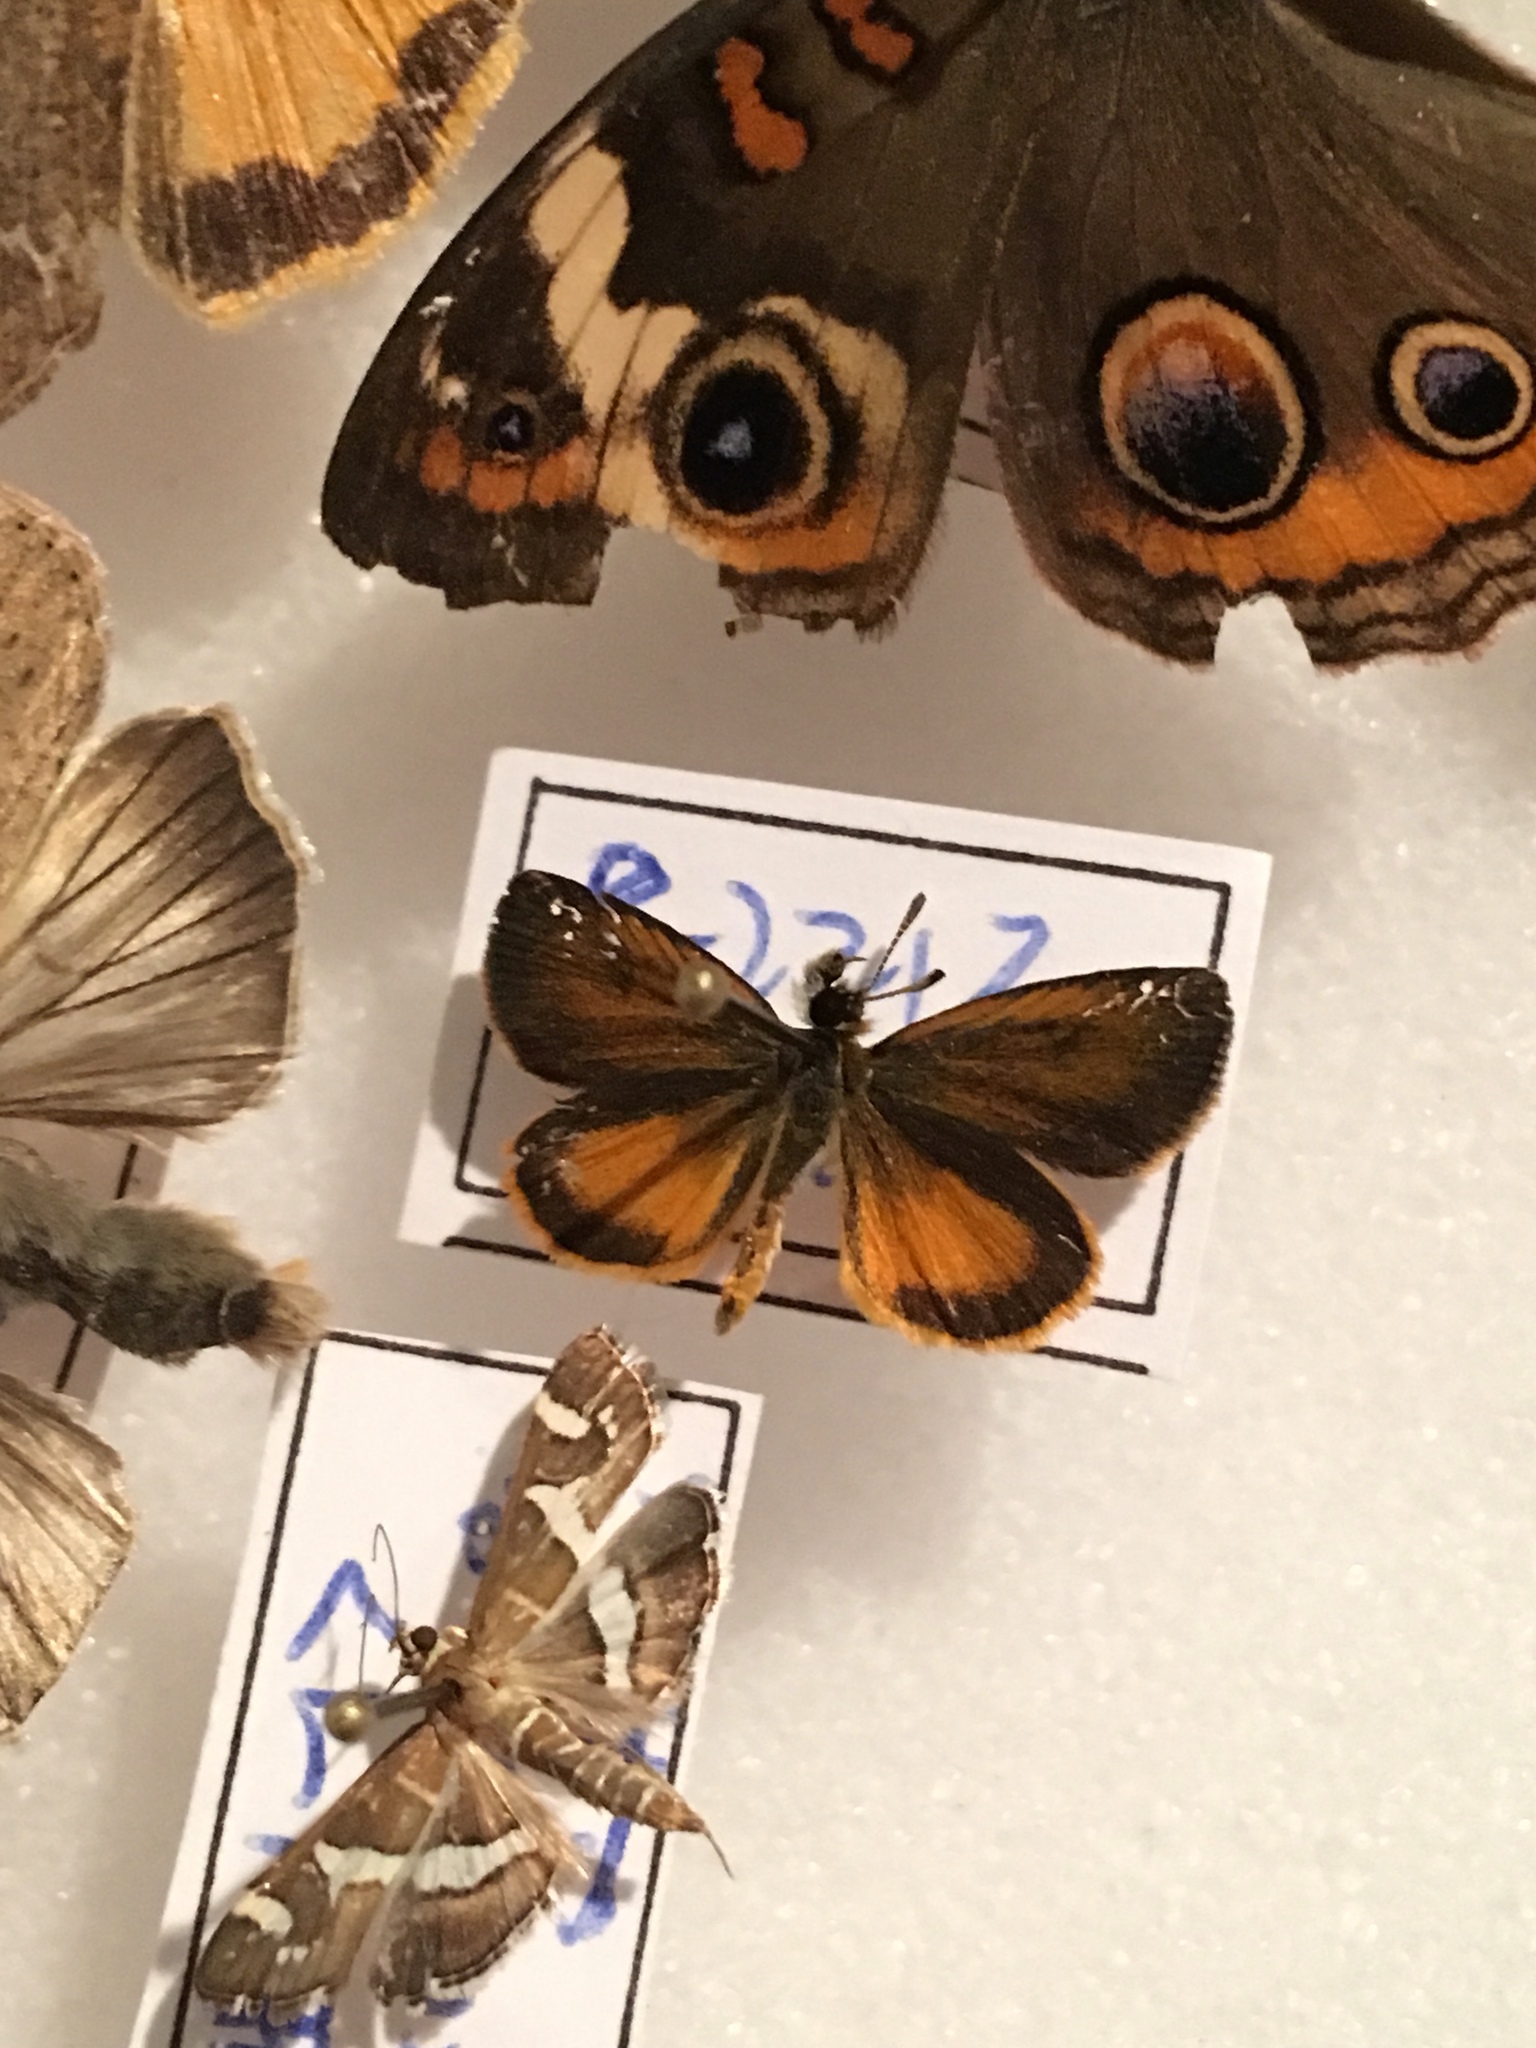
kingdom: Animalia
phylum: Arthropoda
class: Insecta
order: Lepidoptera
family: Hesperiidae
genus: Ancyloxypha
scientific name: Ancyloxypha numitor
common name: Least skipper
